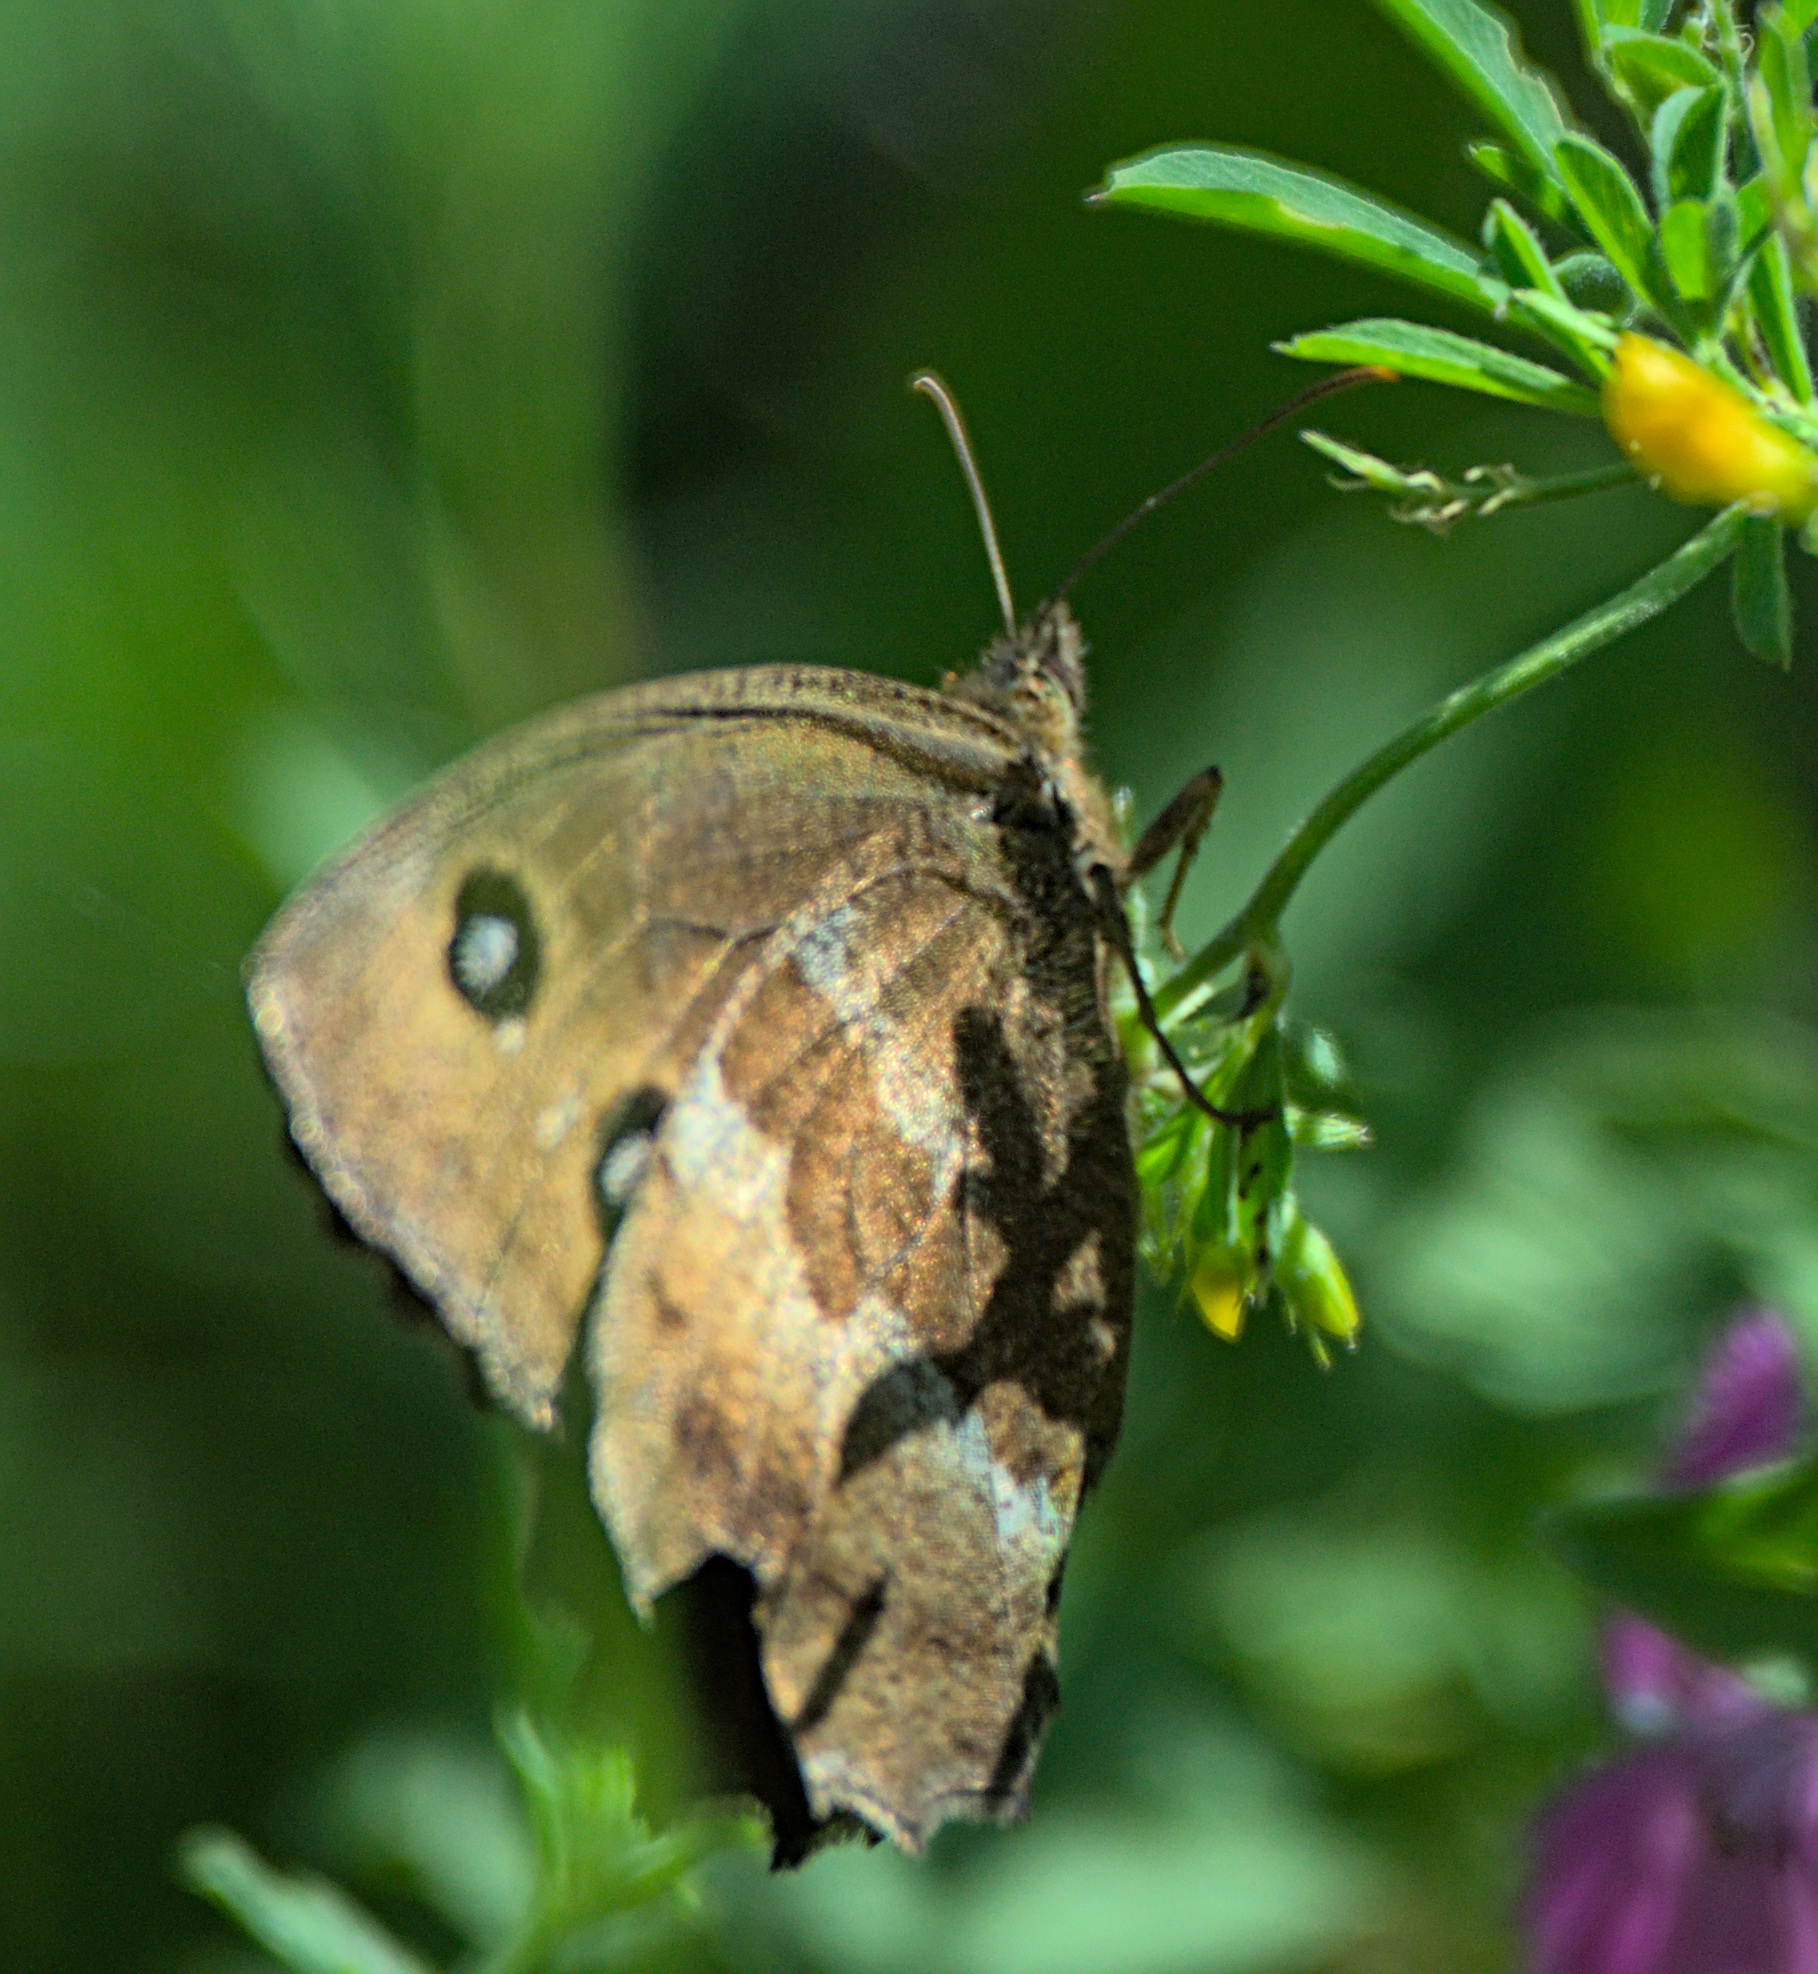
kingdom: Animalia
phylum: Arthropoda
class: Insecta
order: Lepidoptera
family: Nymphalidae
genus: Minois
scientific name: Minois dryas
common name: Dryad
